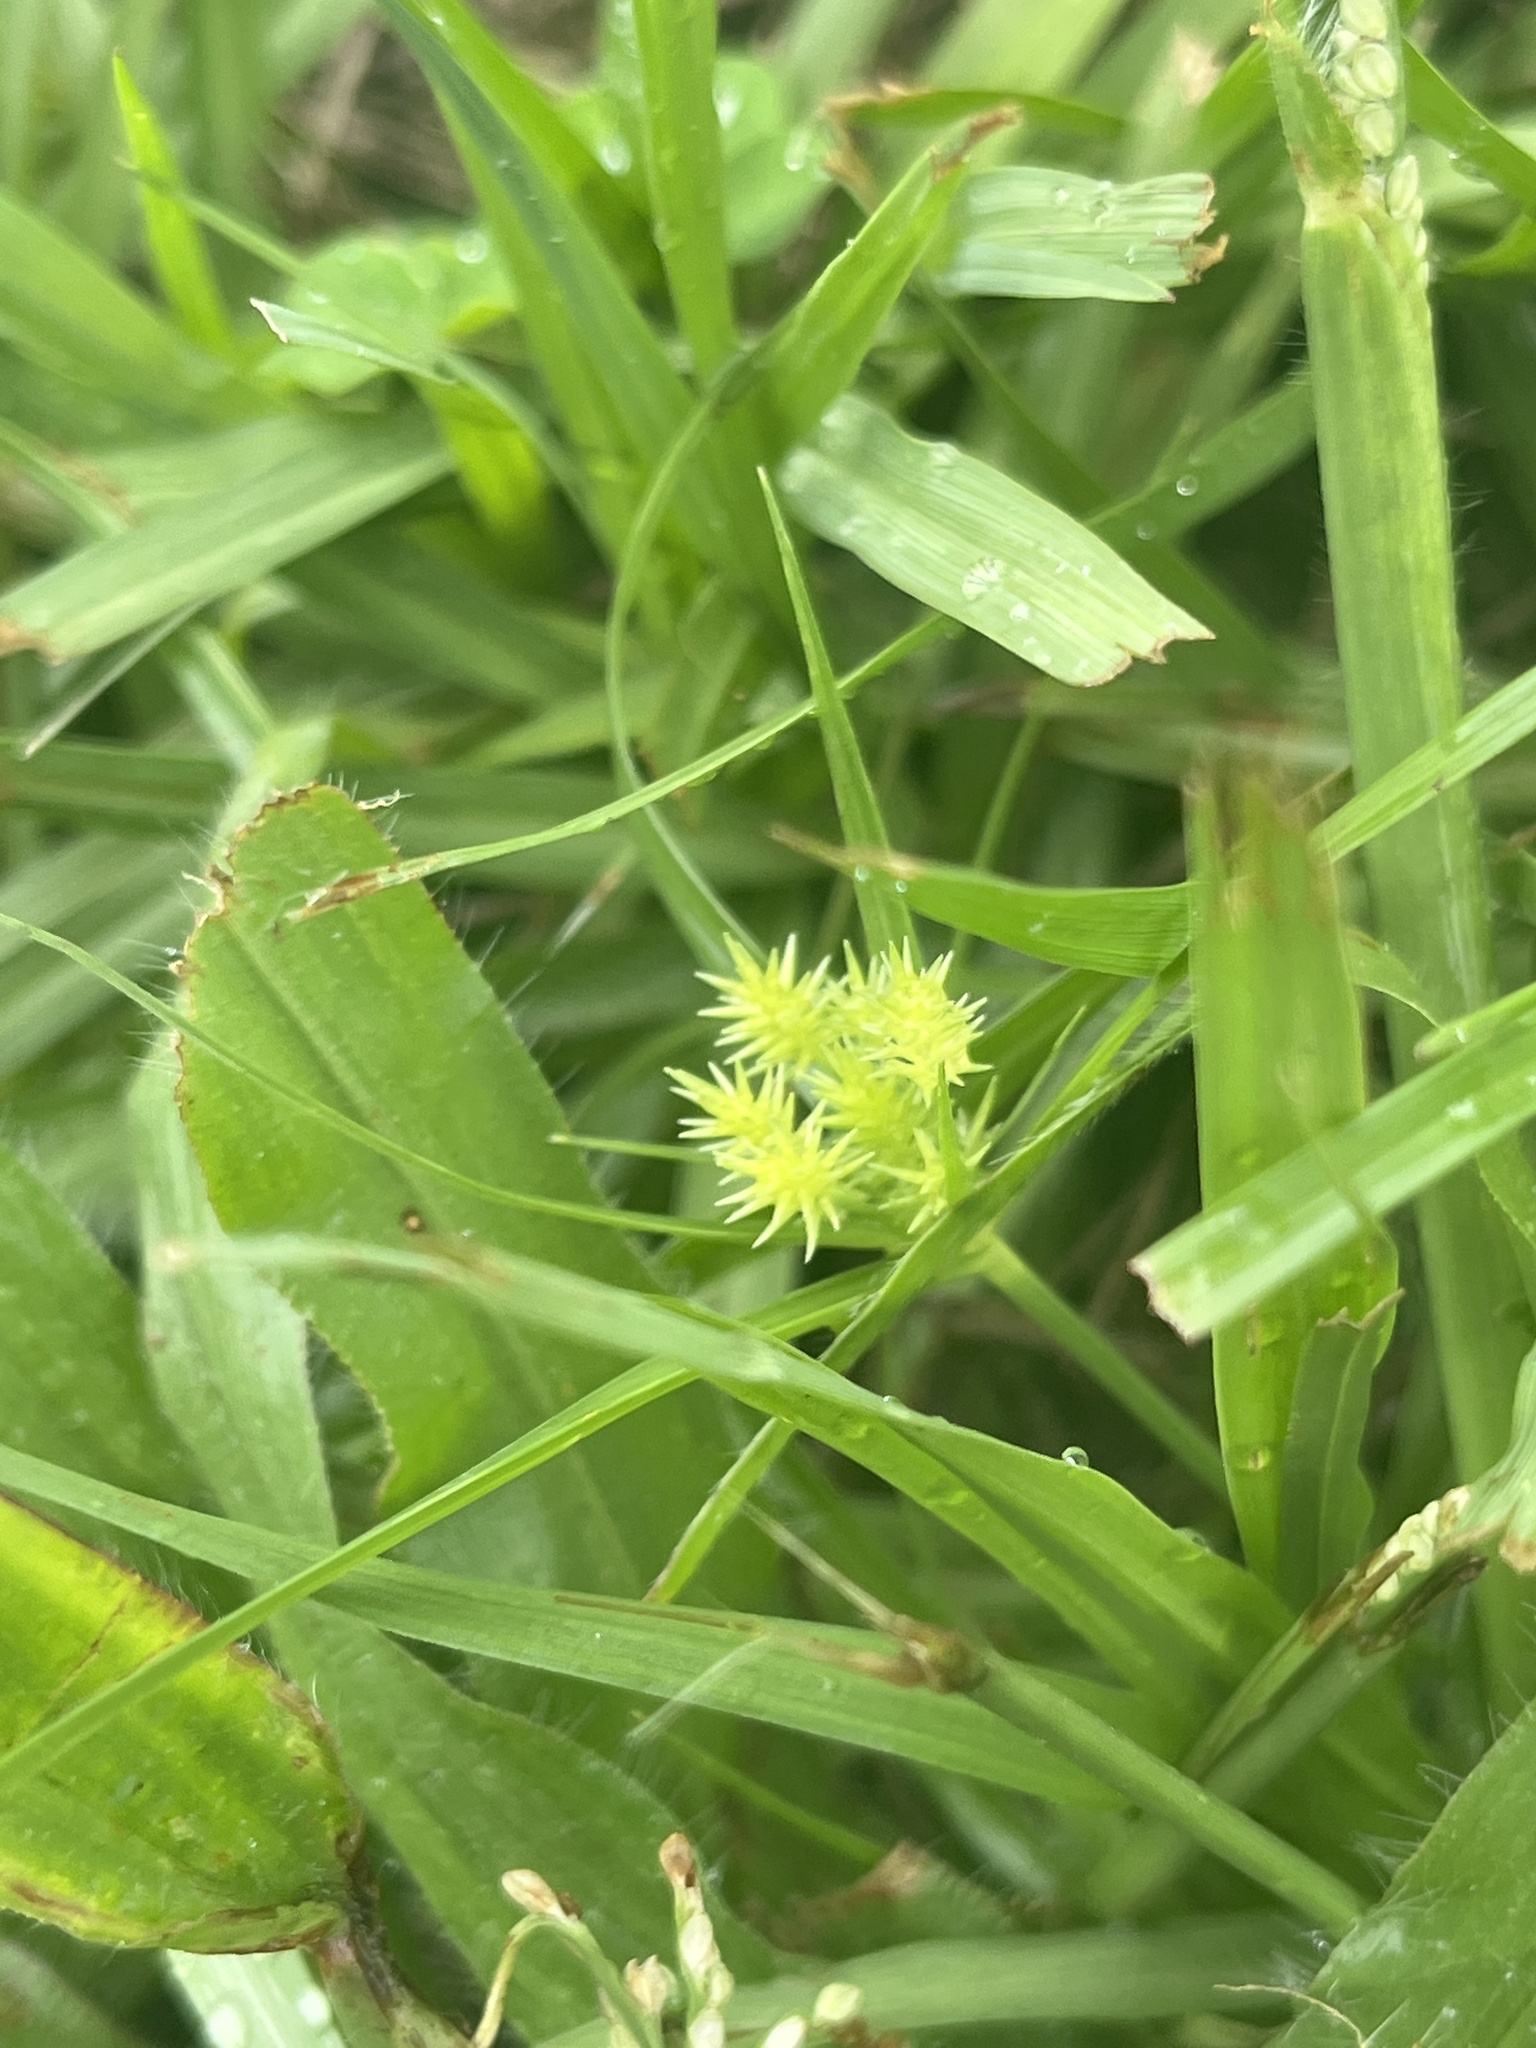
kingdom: Plantae
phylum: Tracheophyta
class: Liliopsida
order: Poales
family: Cyperaceae
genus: Cyperus
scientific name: Cyperus croceus
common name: Baldwin's flatsedge
